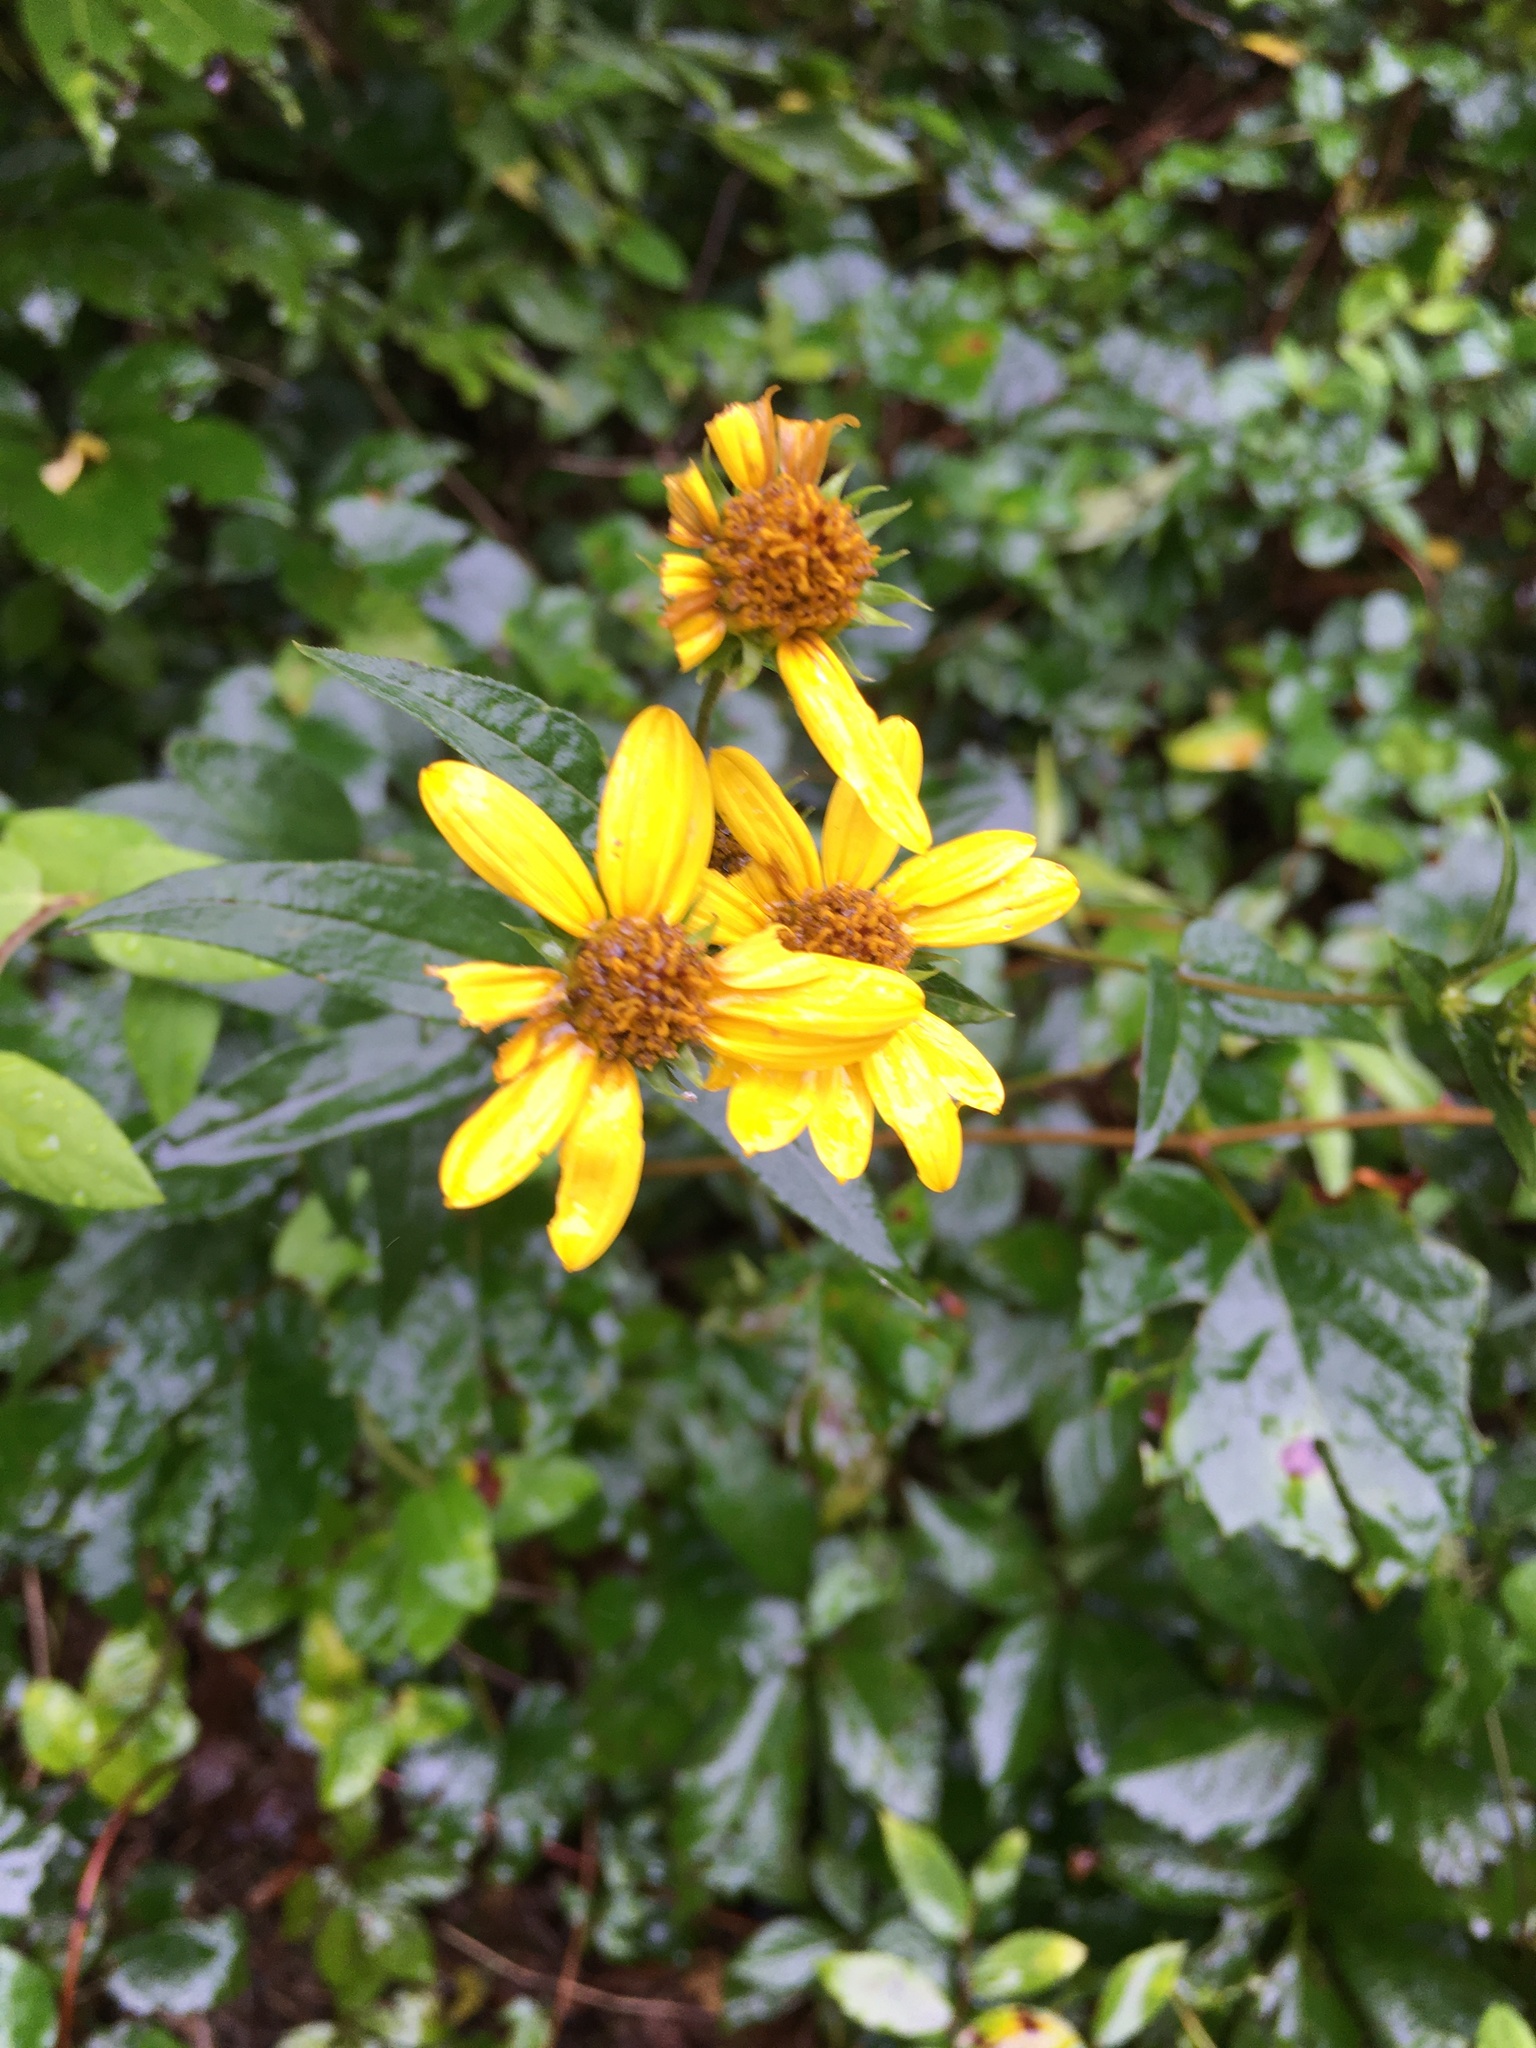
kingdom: Plantae
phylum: Tracheophyta
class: Magnoliopsida
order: Asterales
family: Asteraceae
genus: Helianthus
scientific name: Helianthus divaricatus
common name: Divergent sunflower
